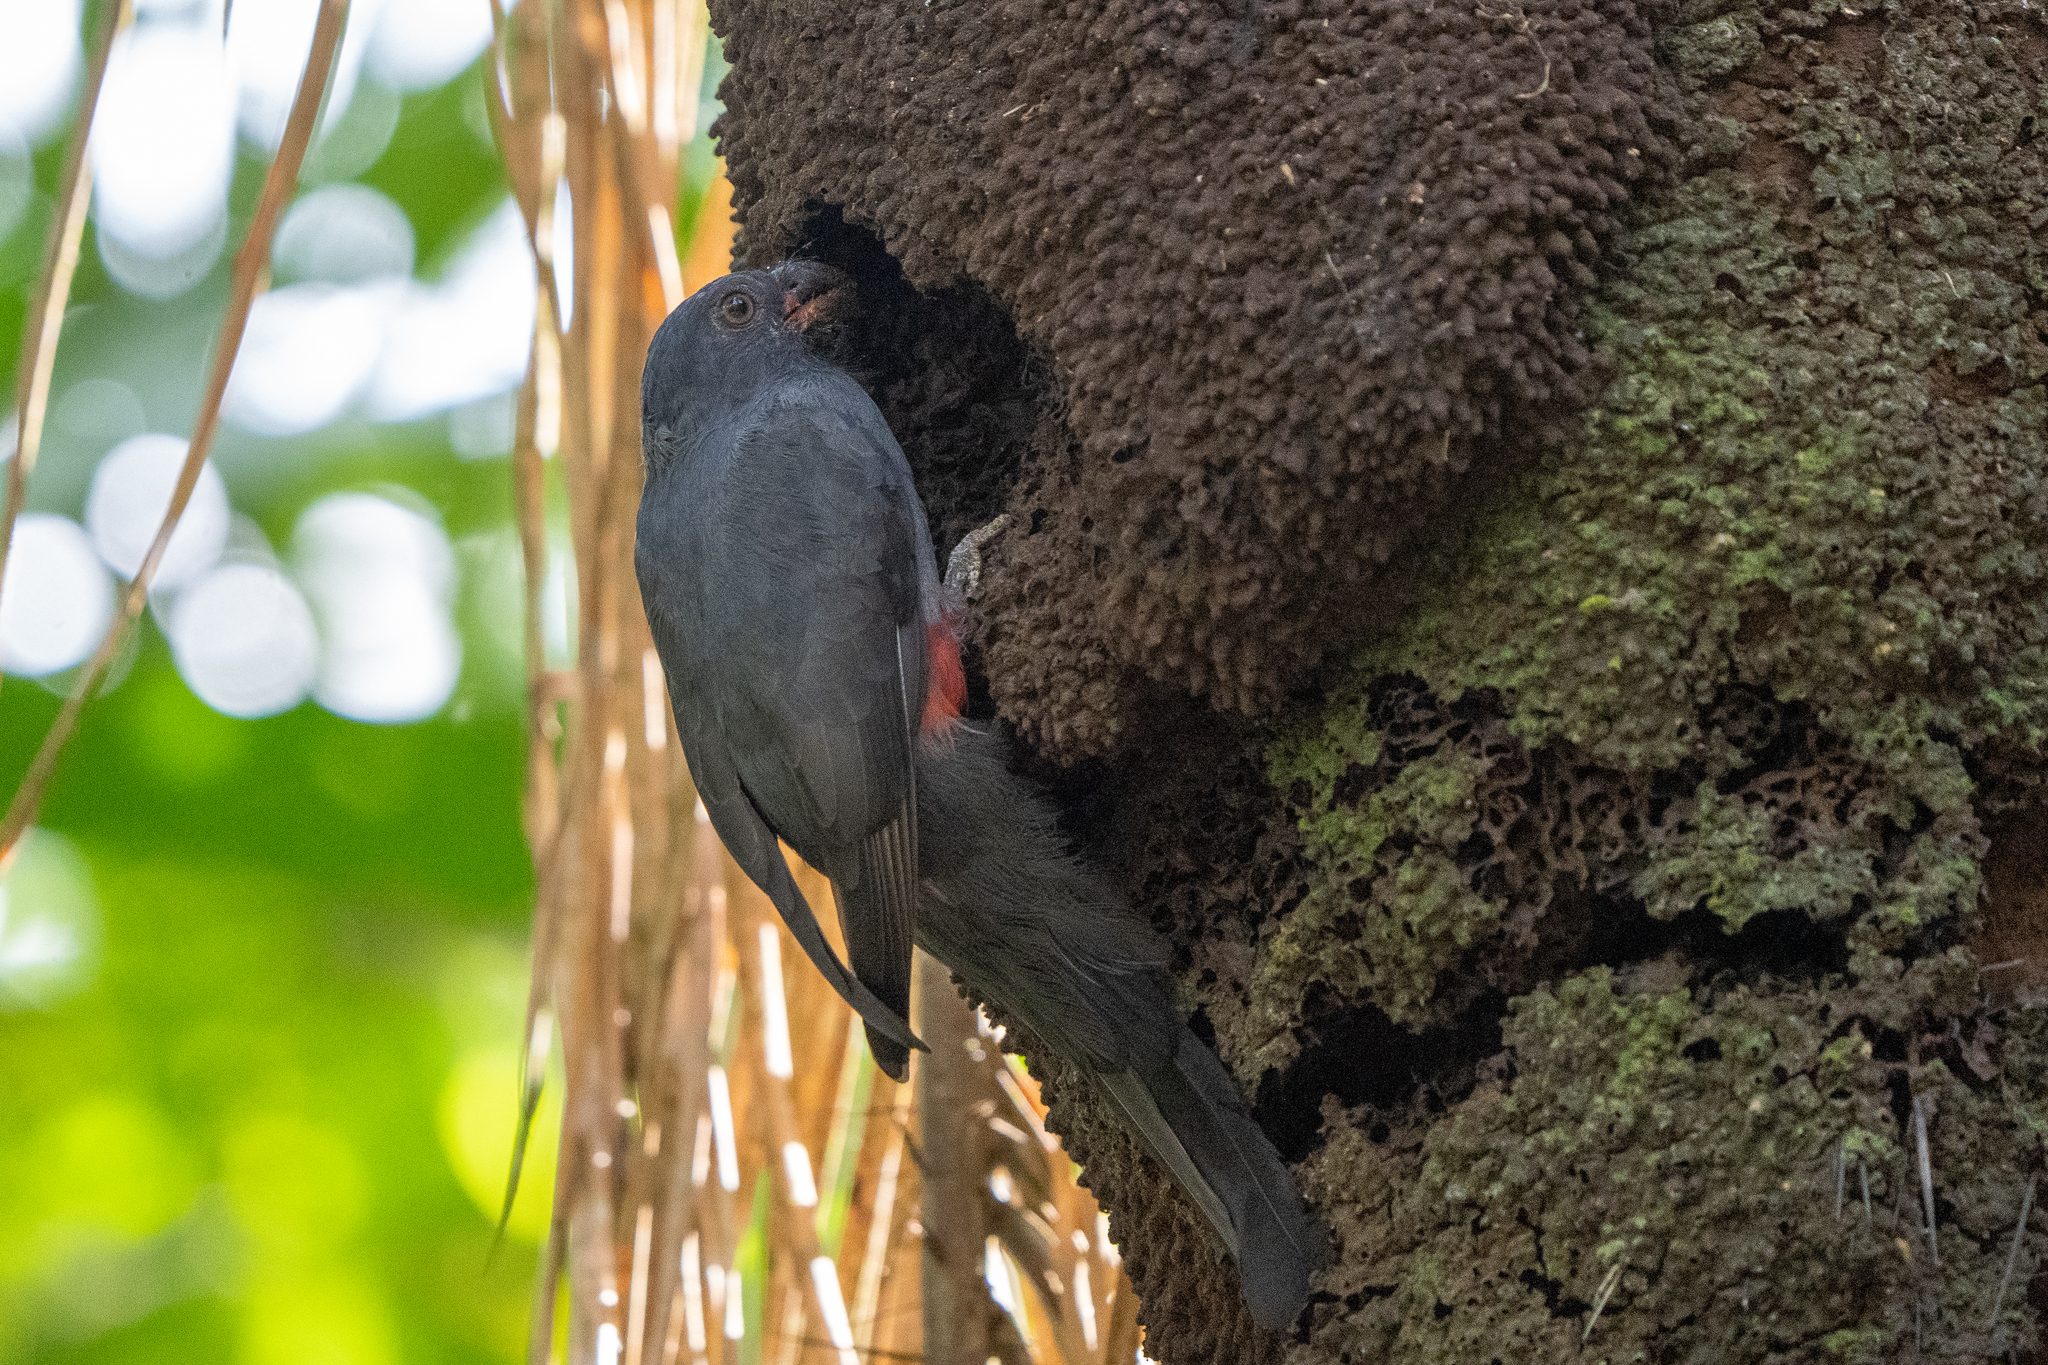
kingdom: Animalia
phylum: Chordata
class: Aves
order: Trogoniformes
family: Trogonidae
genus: Trogon
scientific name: Trogon massena
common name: Slaty-tailed trogon
